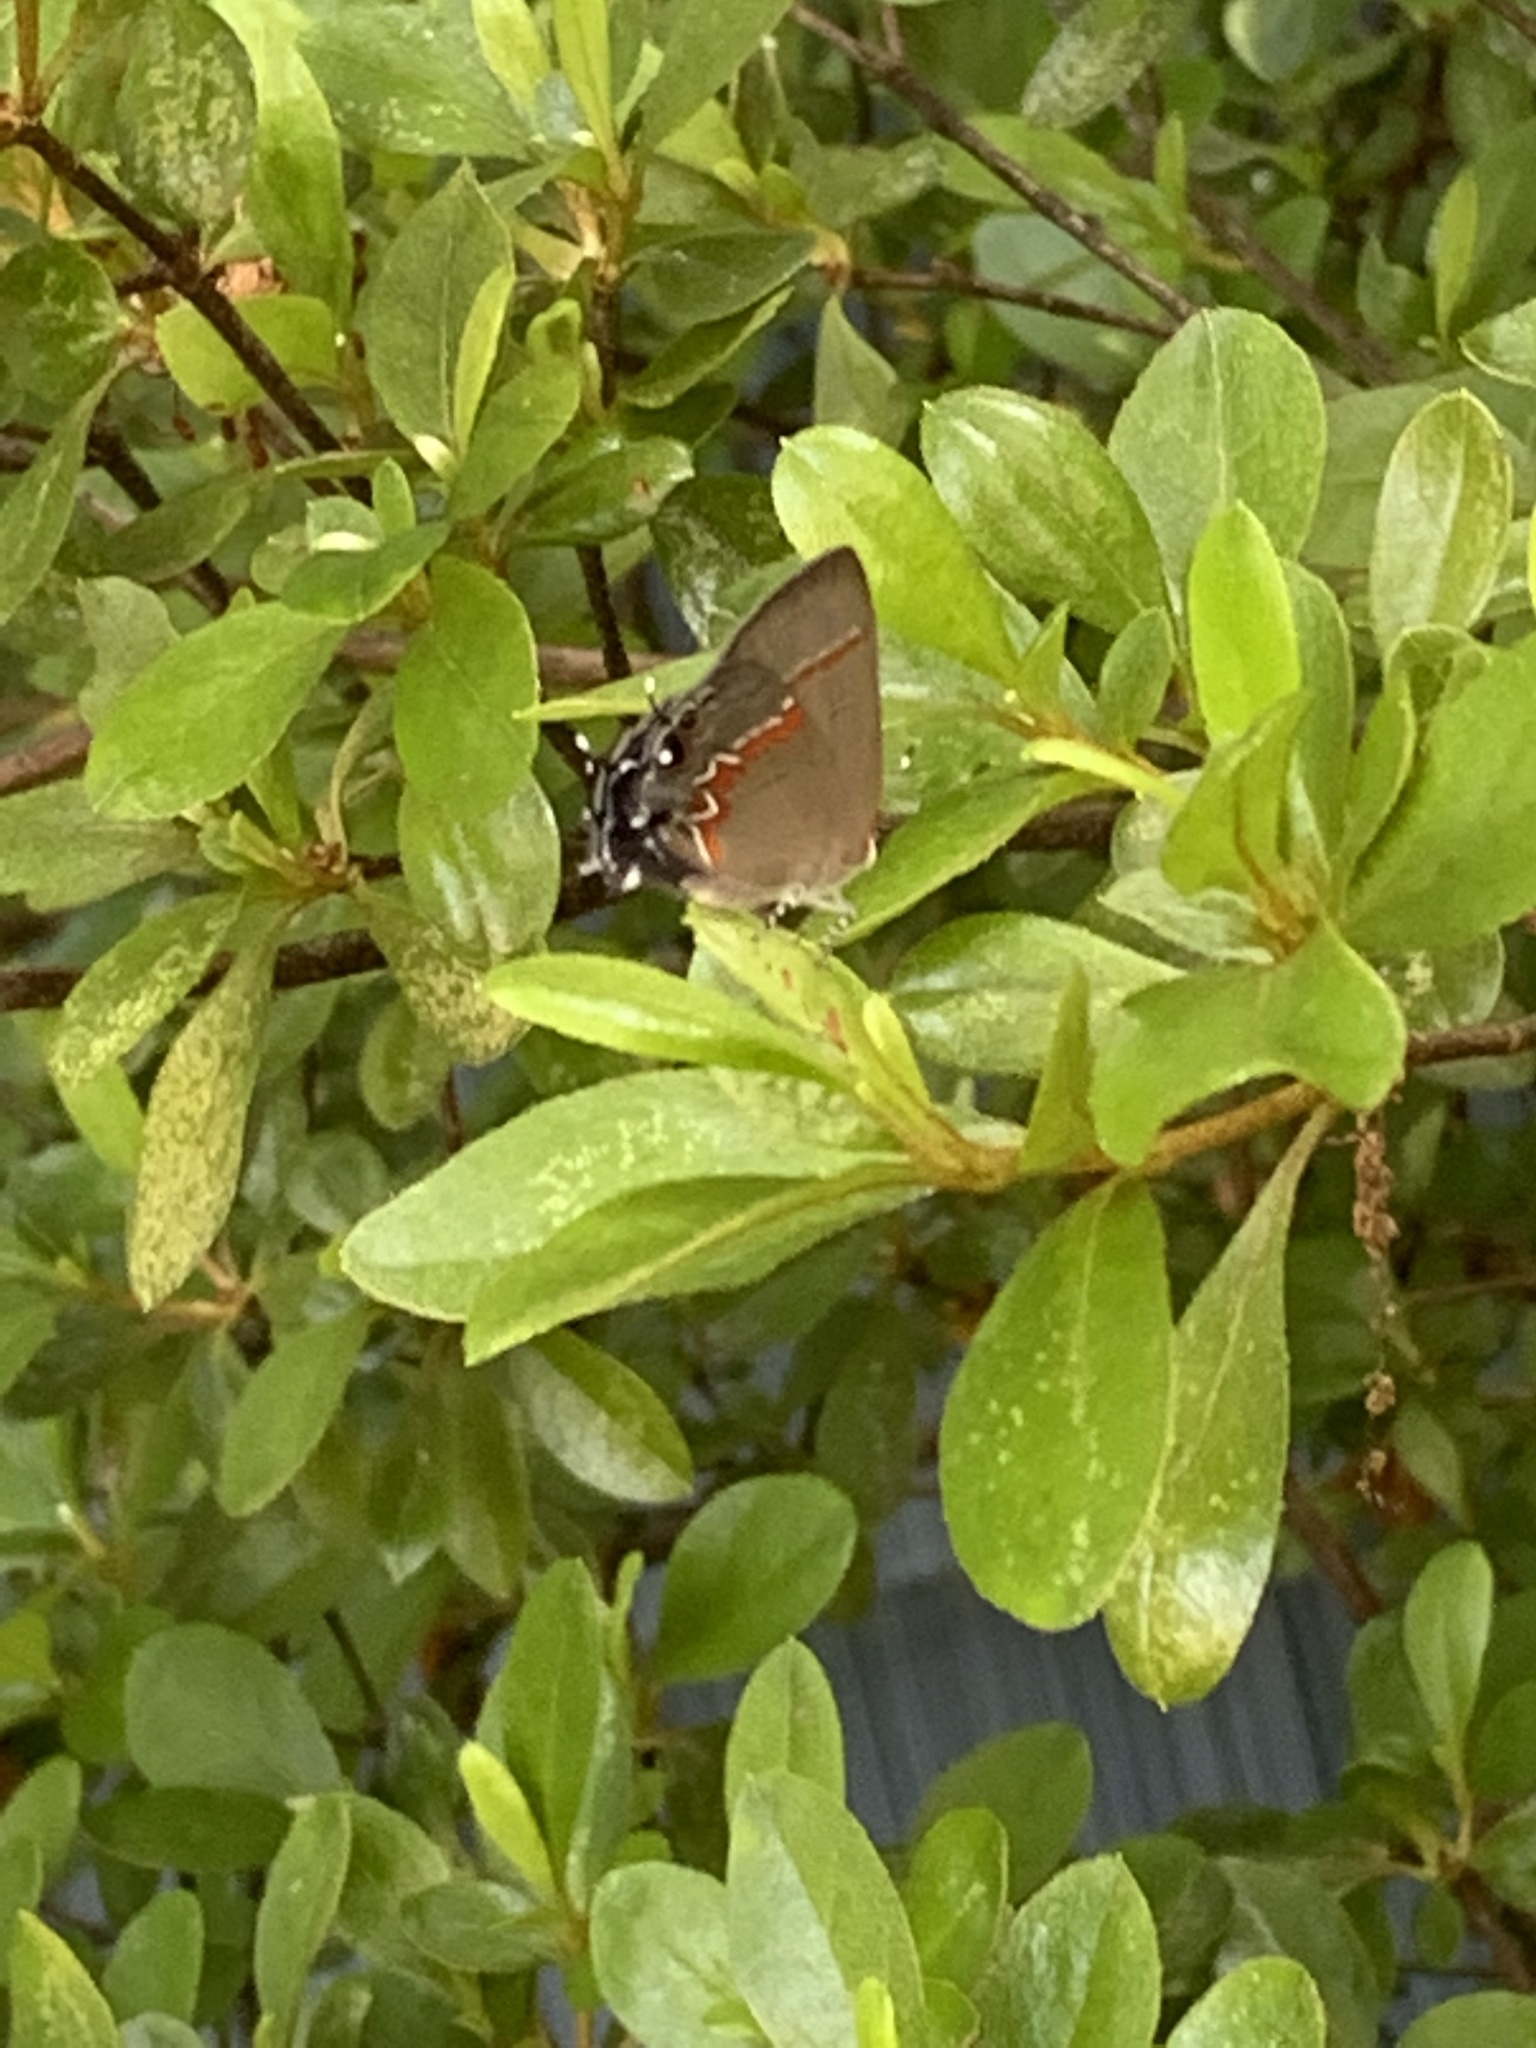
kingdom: Animalia
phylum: Arthropoda
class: Insecta
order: Lepidoptera
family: Lycaenidae
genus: Calycopis
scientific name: Calycopis cecrops
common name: Red-banded hairstreak
